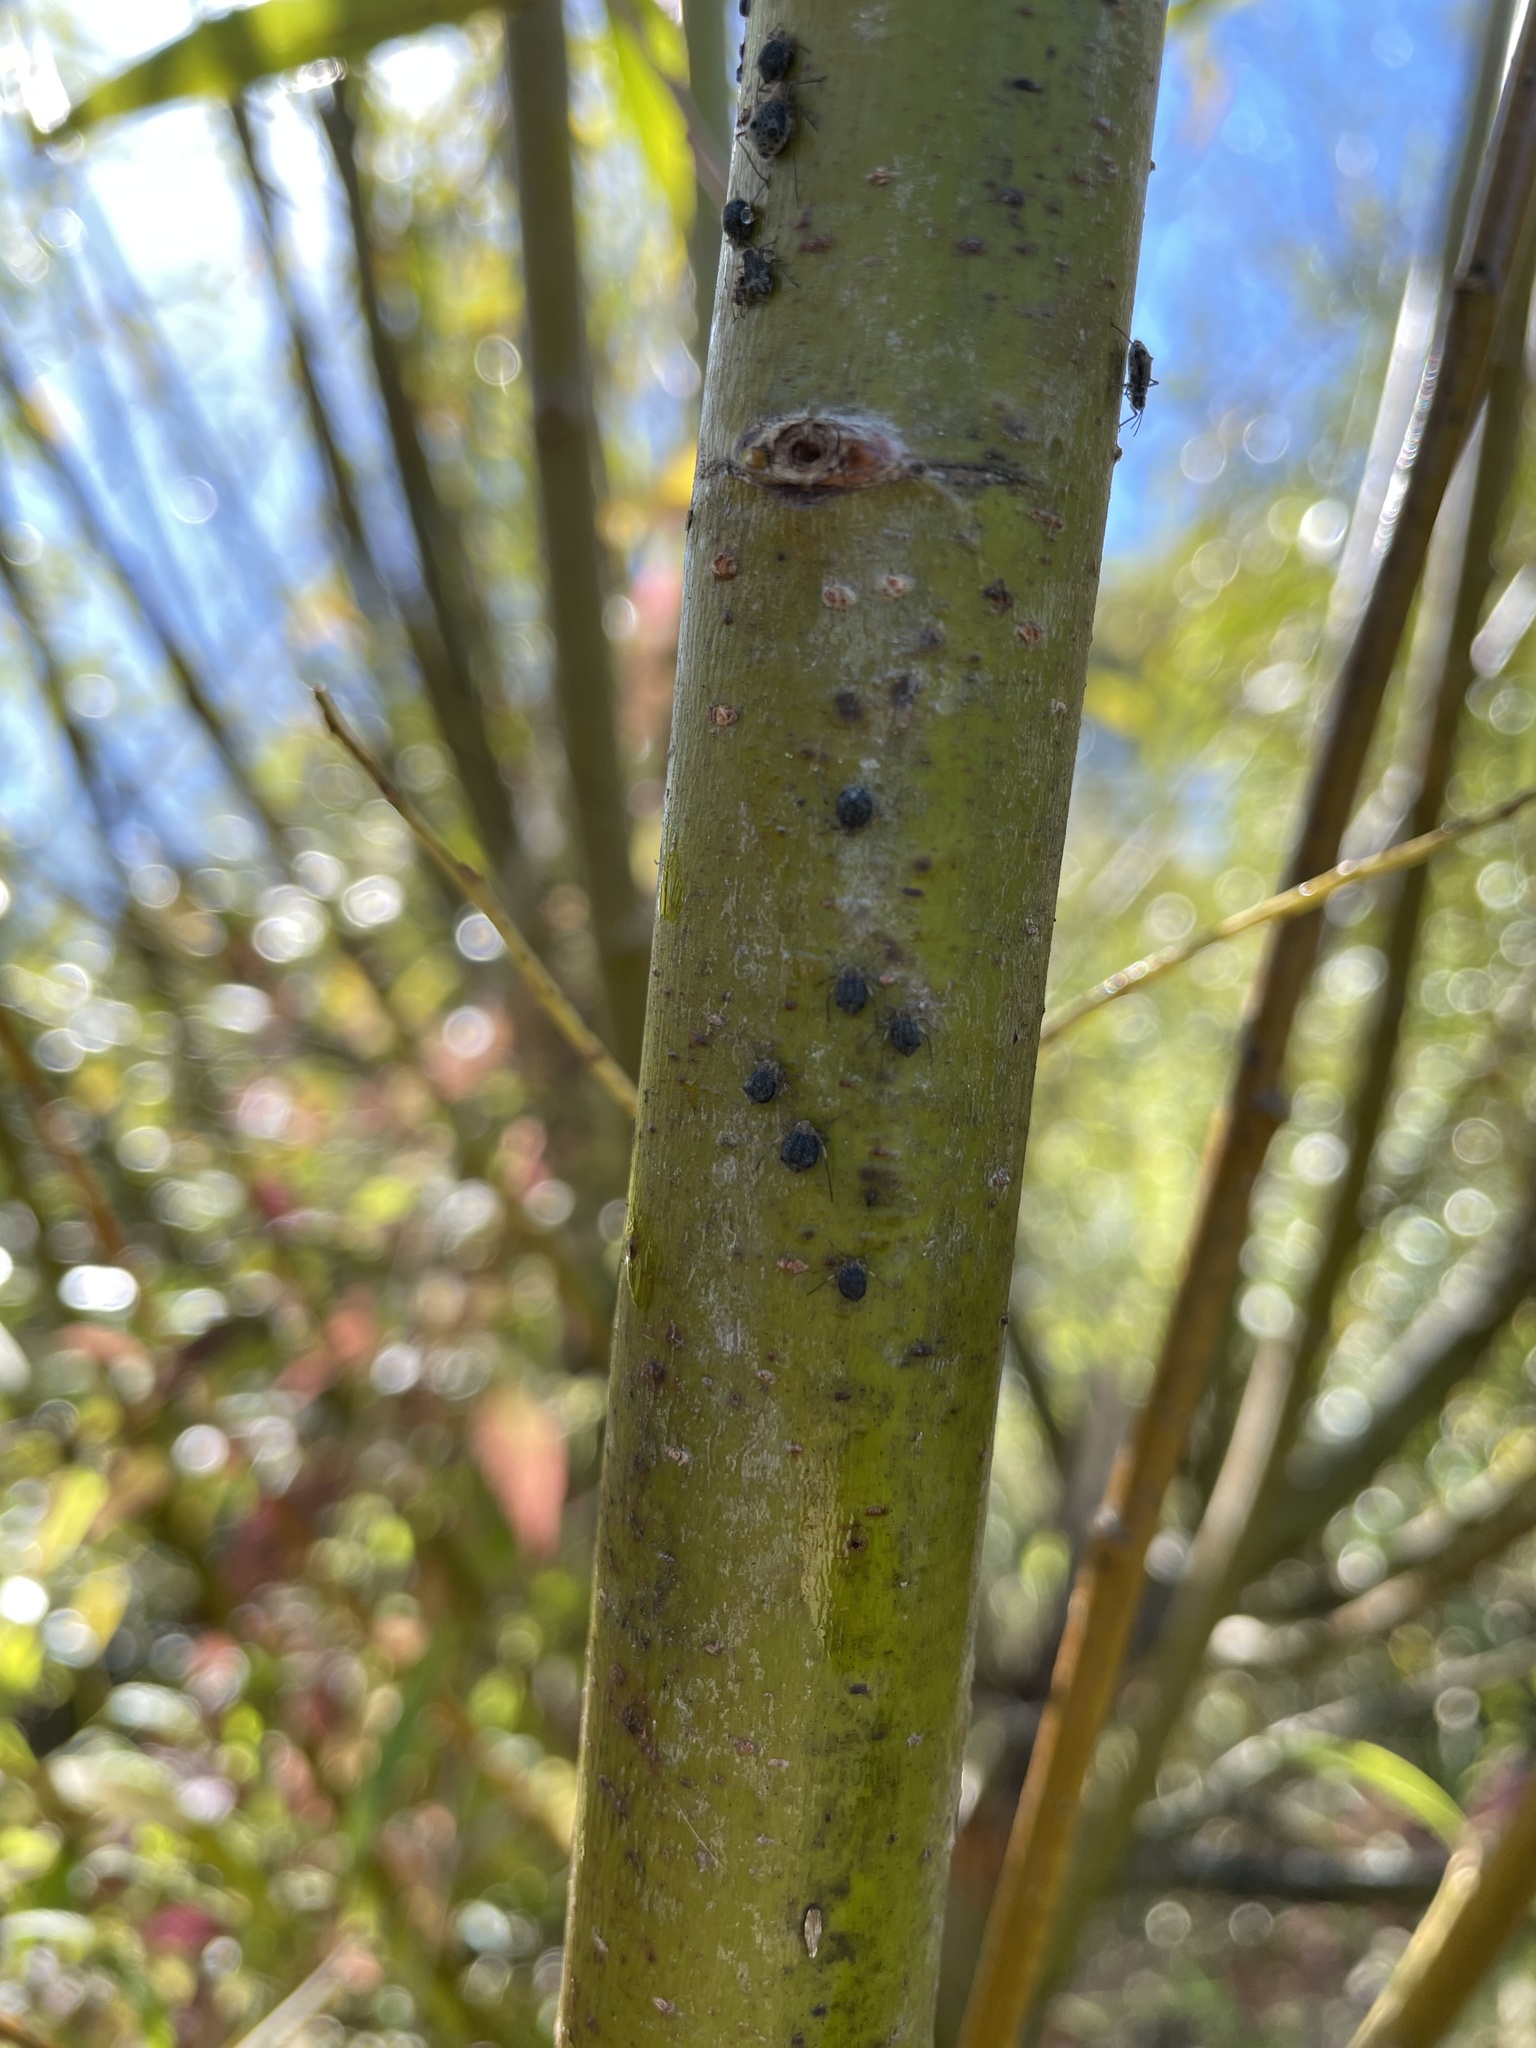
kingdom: Animalia
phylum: Arthropoda
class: Insecta
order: Hymenoptera
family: Braconidae
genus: Pauesia
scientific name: Pauesia nigrovaria
